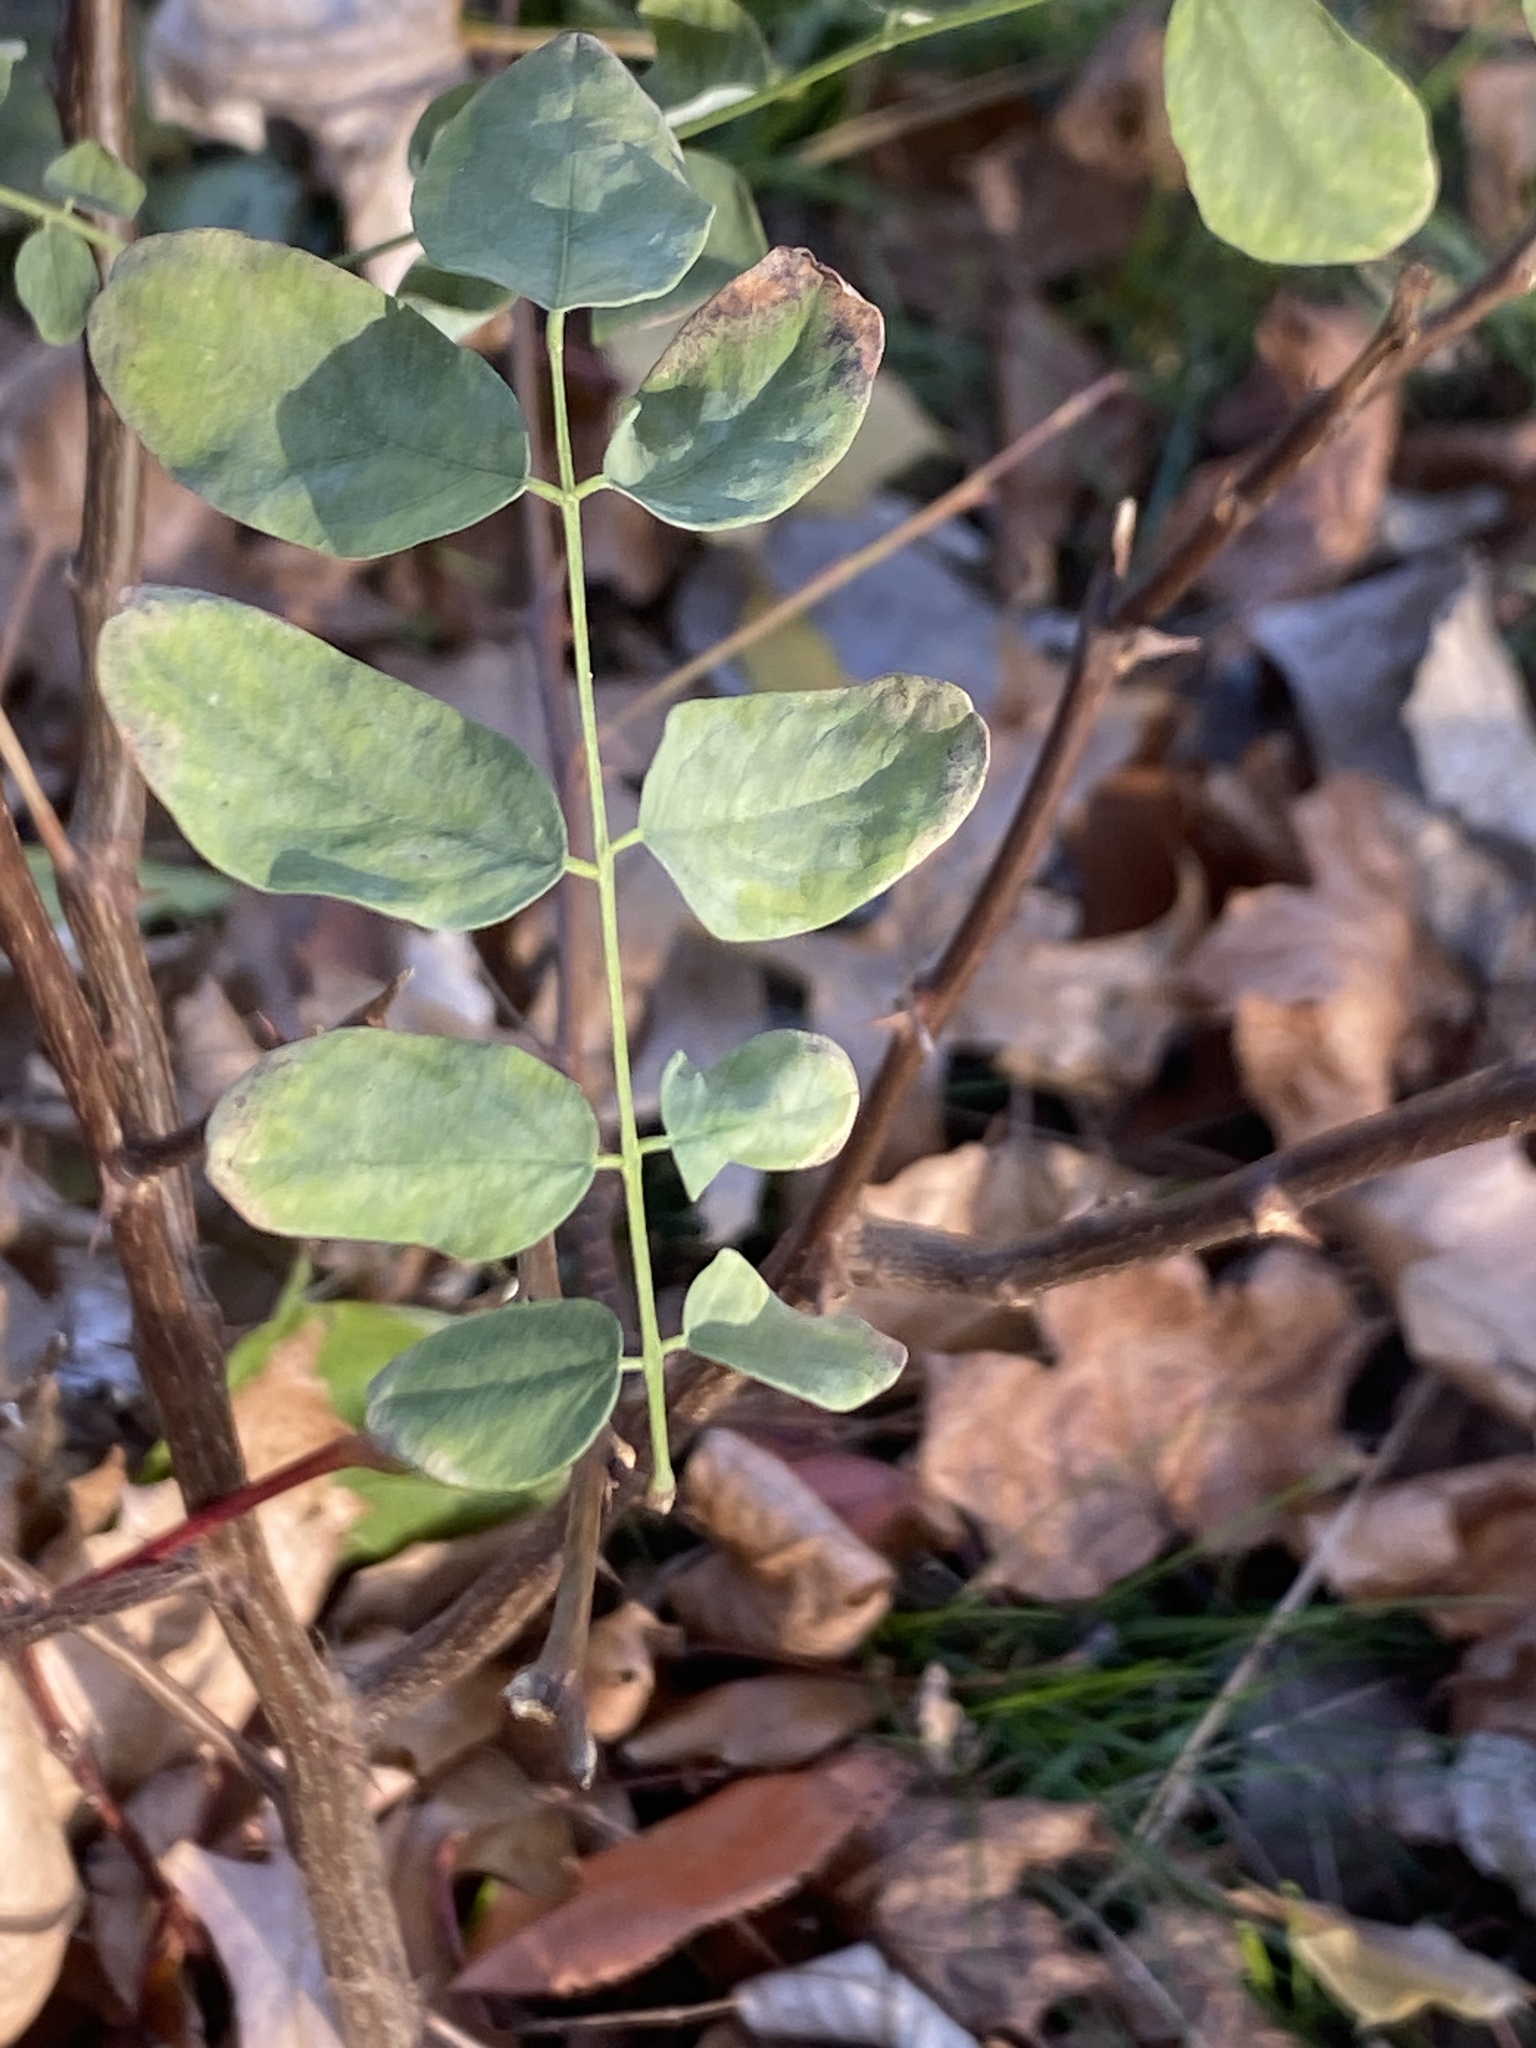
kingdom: Plantae
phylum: Tracheophyta
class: Magnoliopsida
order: Fabales
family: Fabaceae
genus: Robinia
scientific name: Robinia pseudoacacia
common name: Black locust
